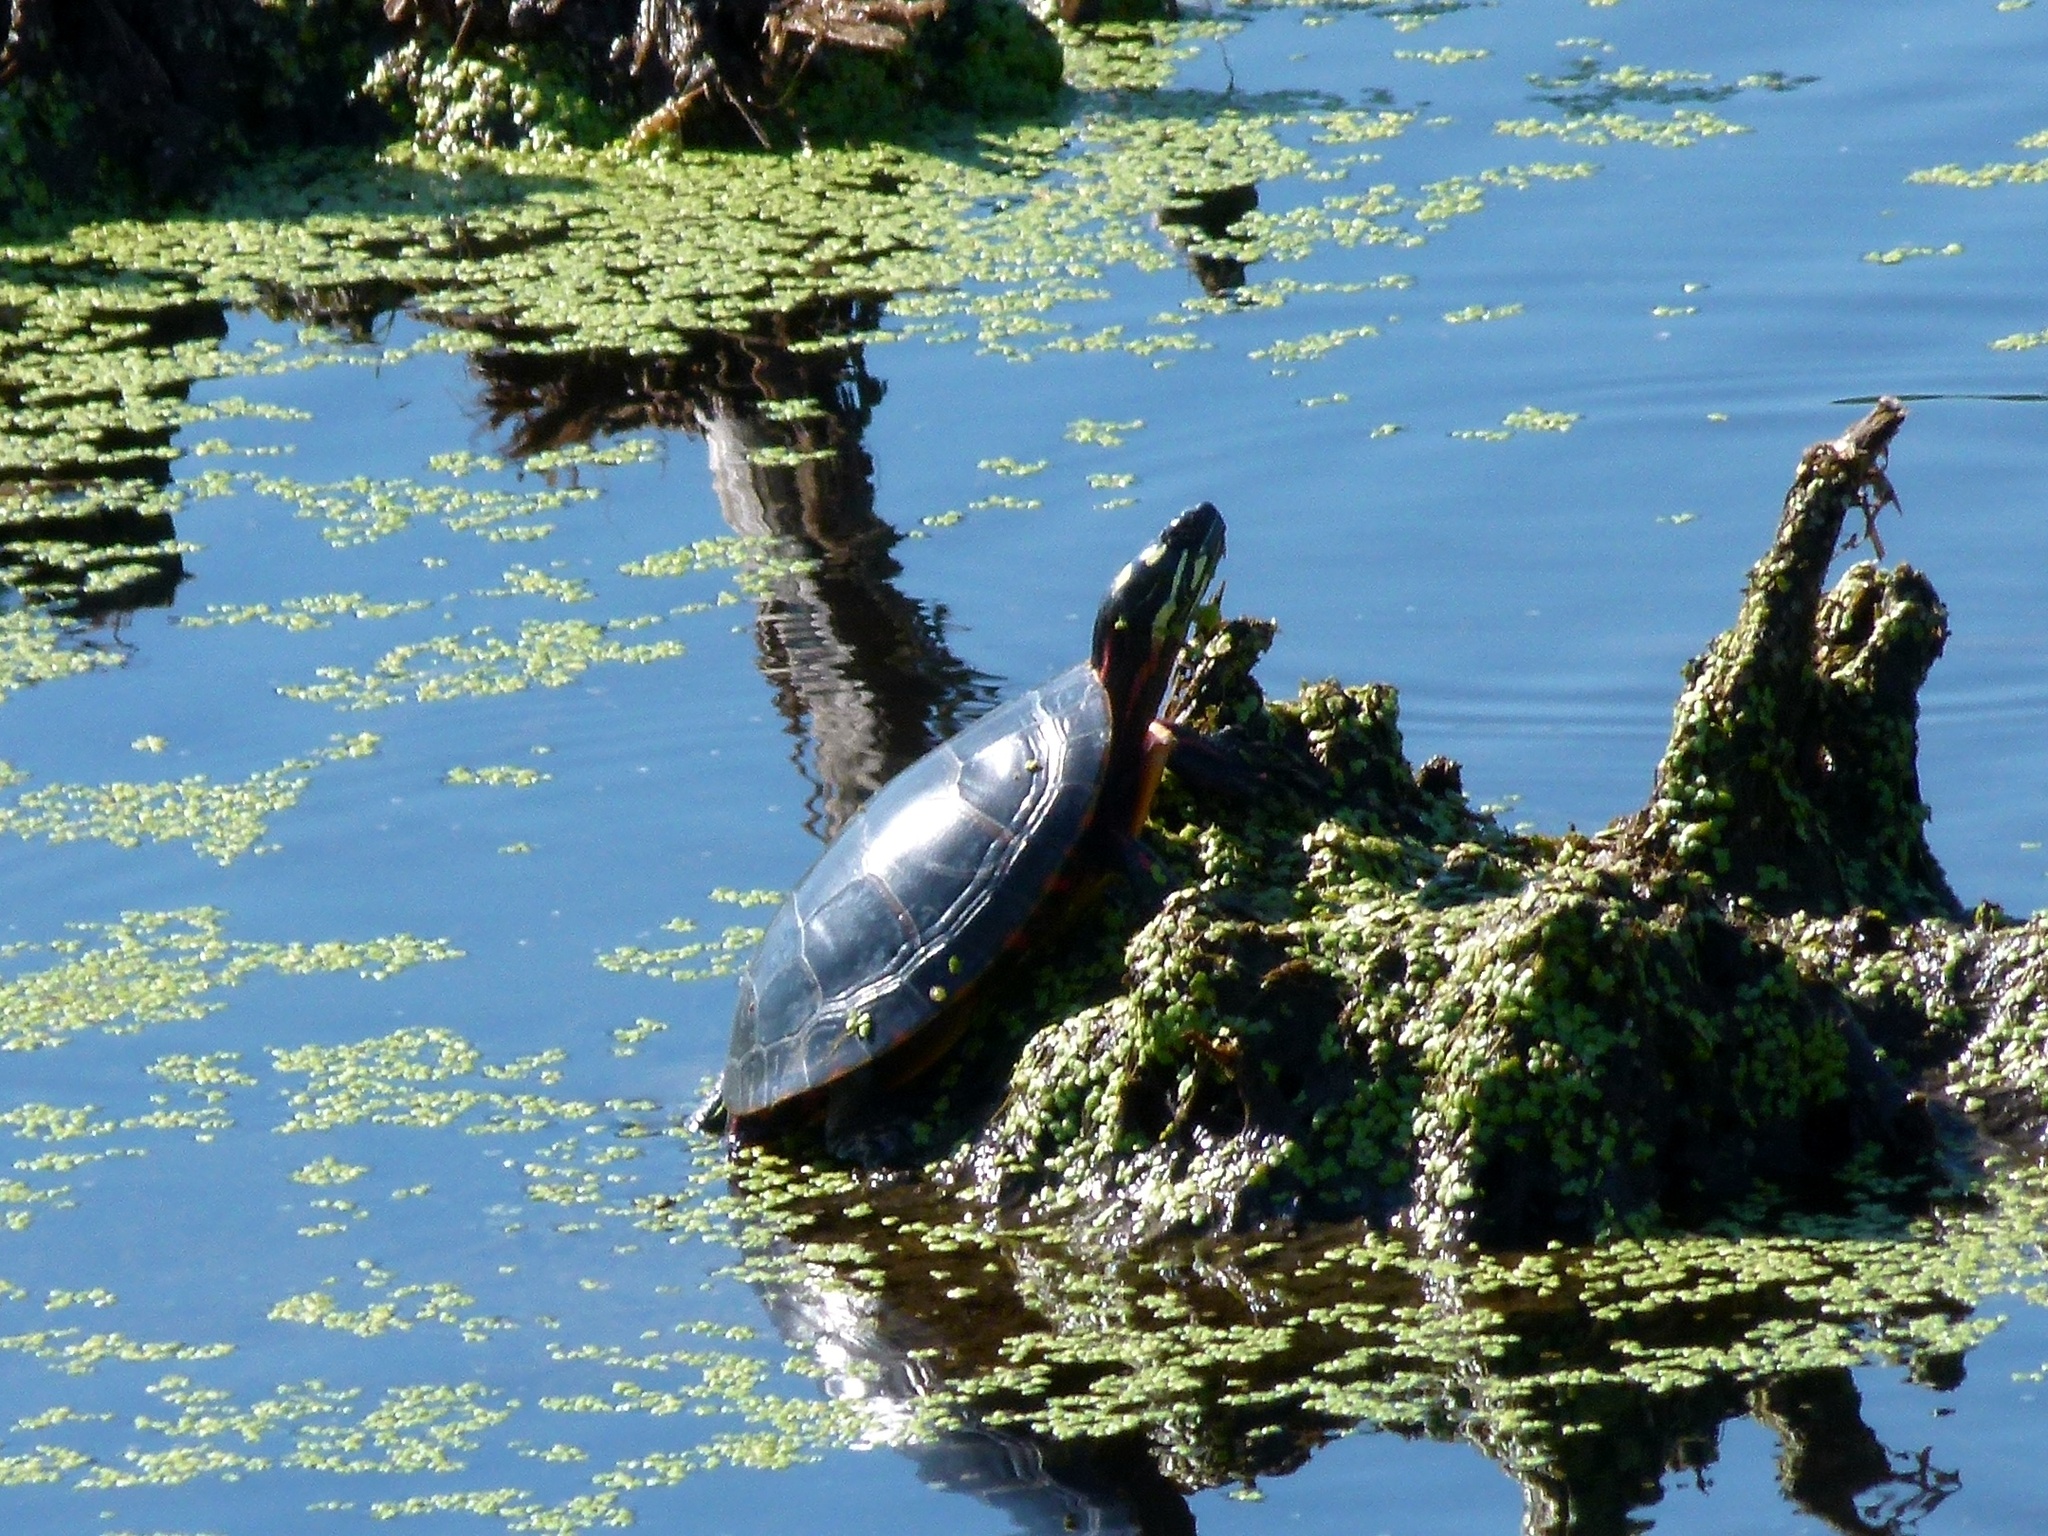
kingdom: Animalia
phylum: Chordata
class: Testudines
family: Emydidae
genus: Chrysemys
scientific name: Chrysemys picta
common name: Painted turtle
